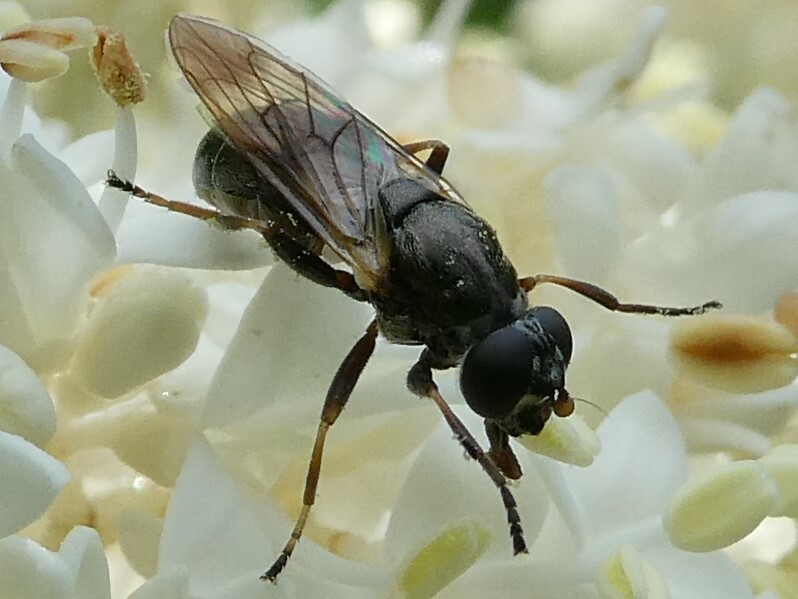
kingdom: Animalia
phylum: Arthropoda
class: Insecta
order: Diptera
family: Syrphidae
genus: Myolepta
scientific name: Myolepta
